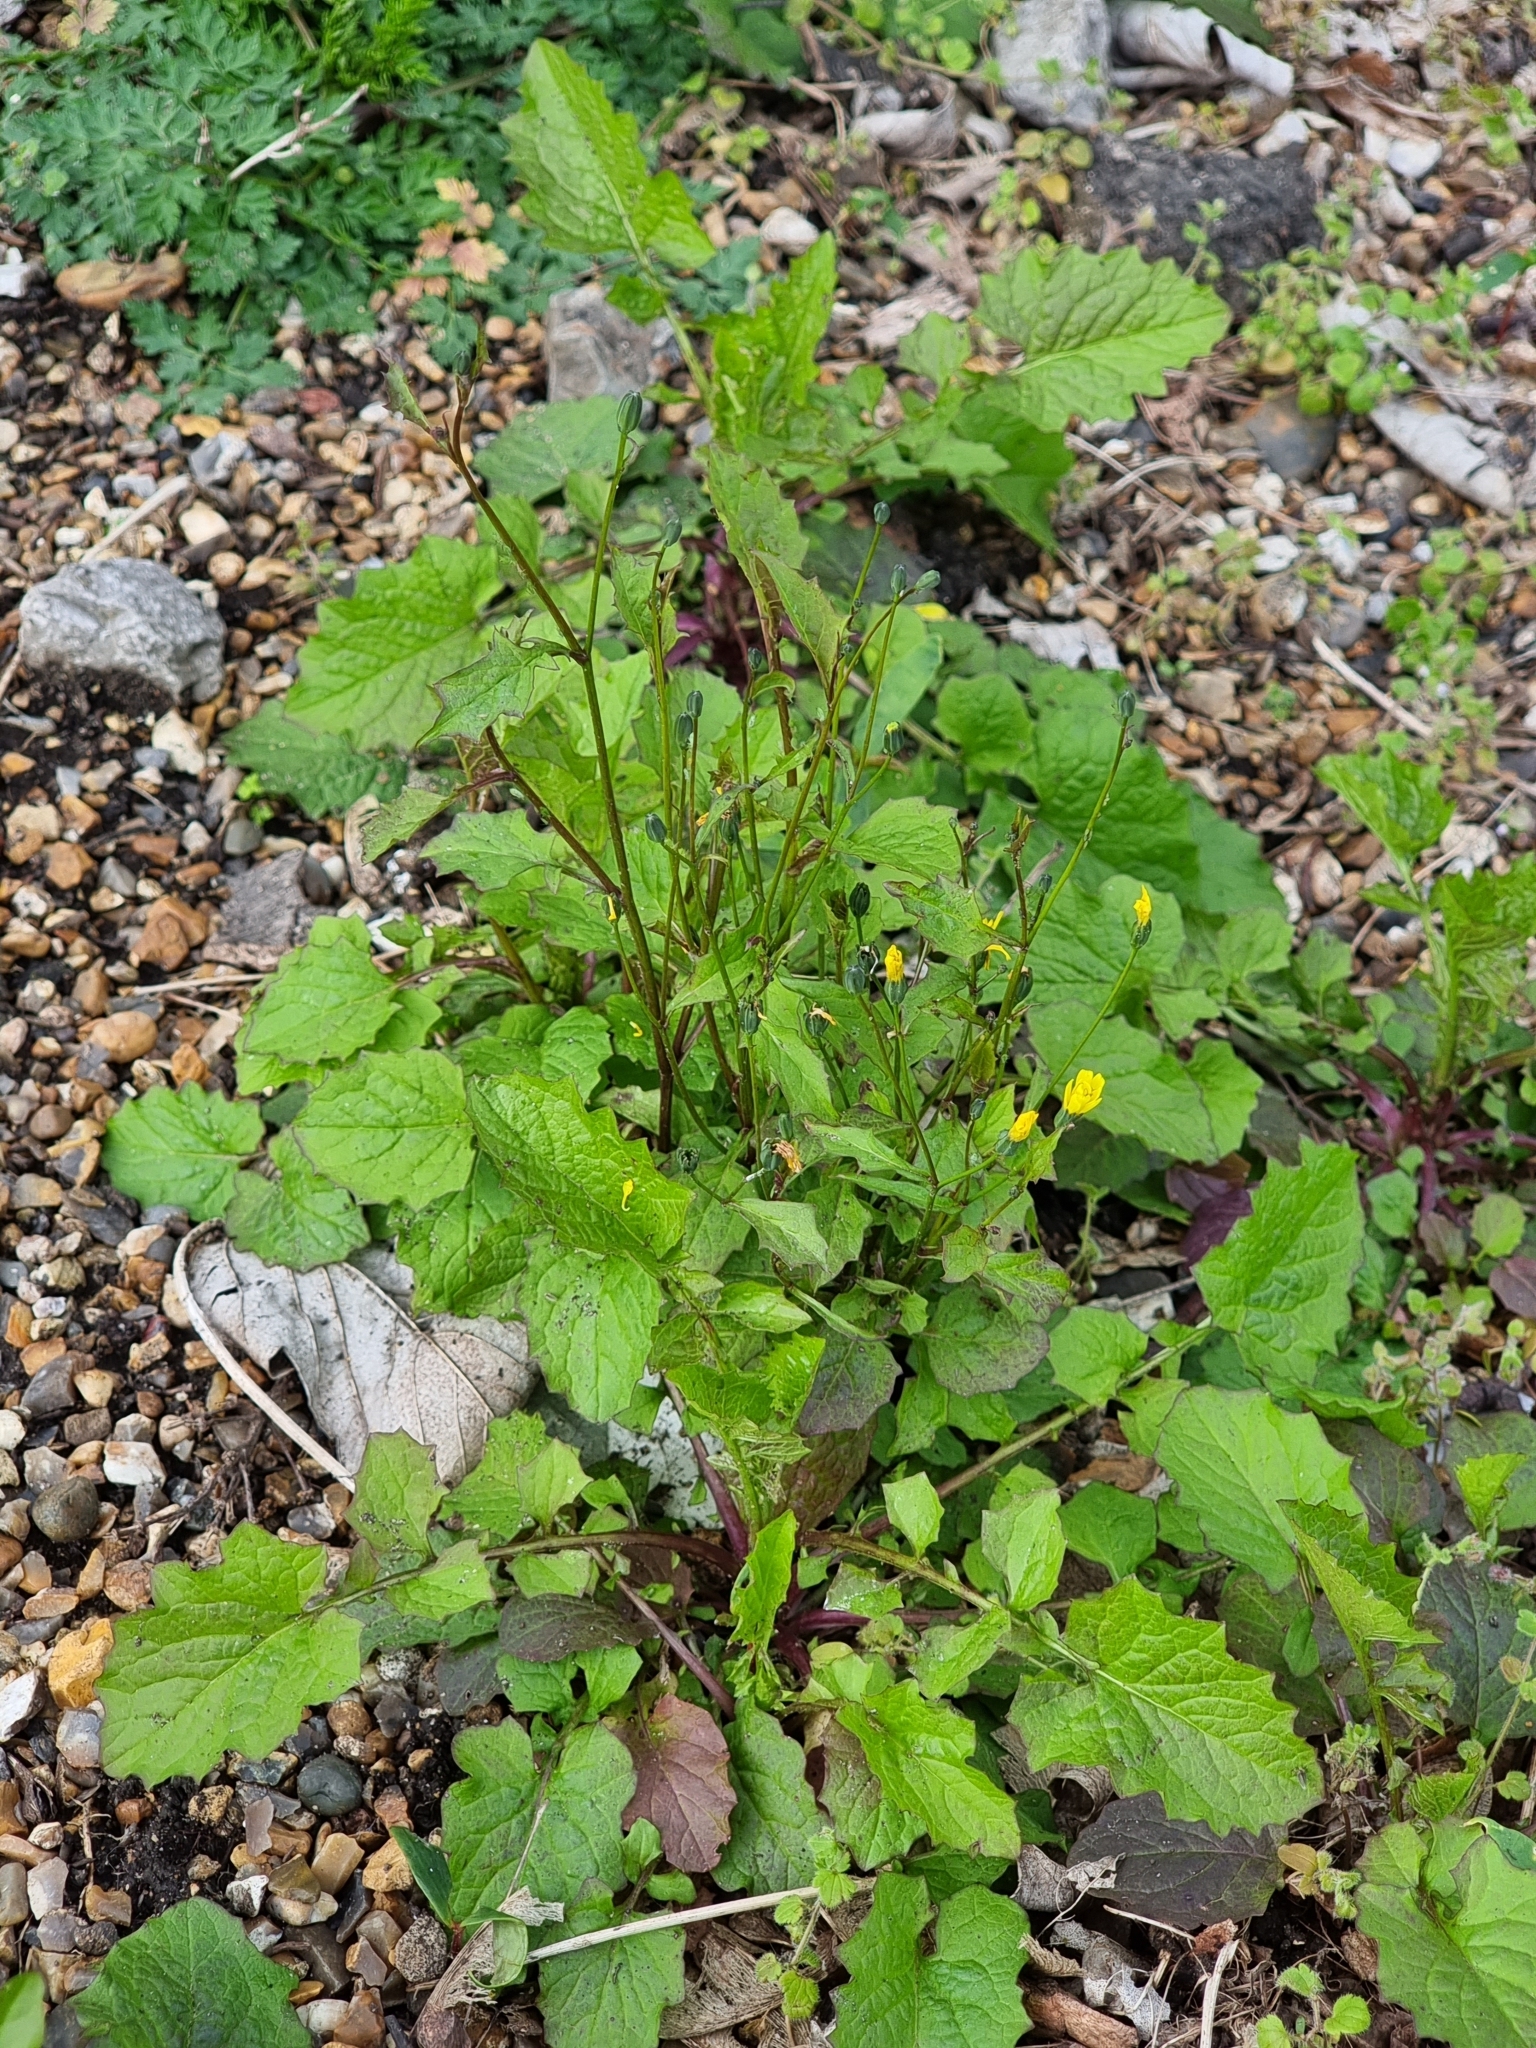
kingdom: Plantae
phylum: Tracheophyta
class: Magnoliopsida
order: Asterales
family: Asteraceae
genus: Lapsana
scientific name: Lapsana communis
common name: Nipplewort
